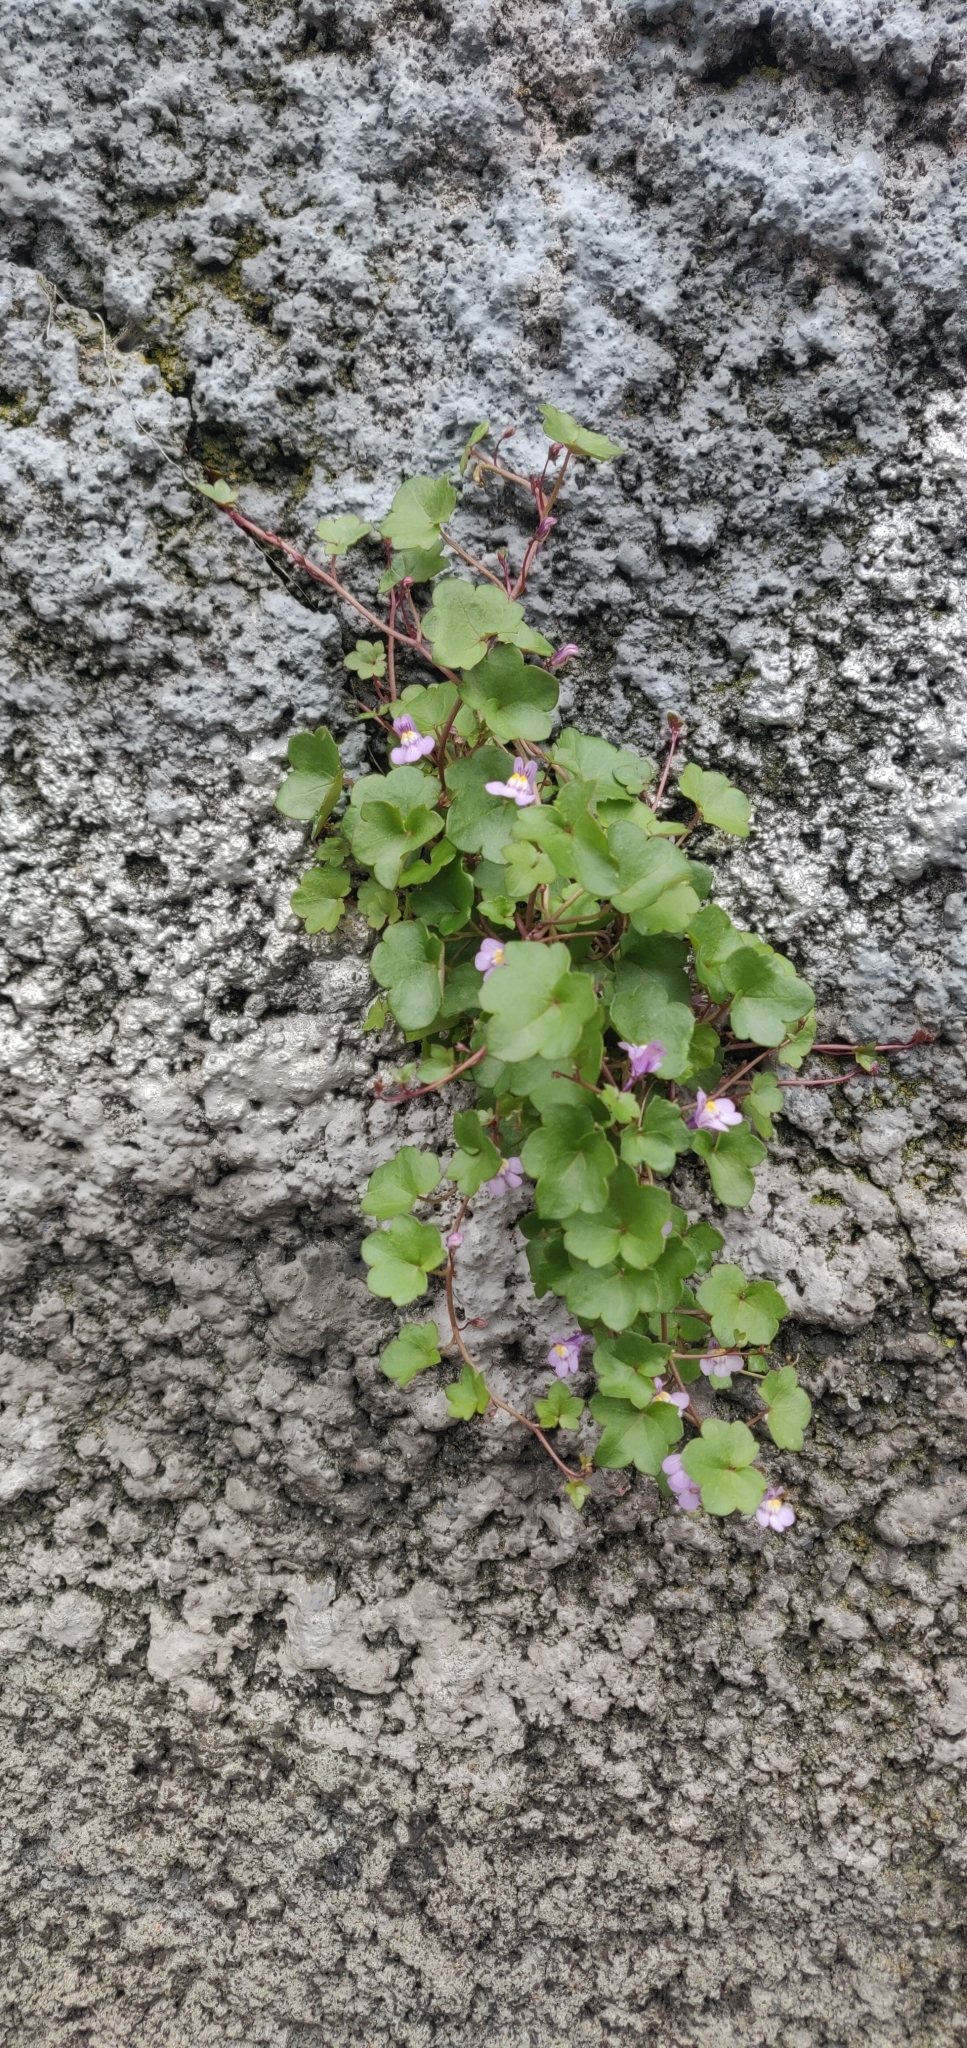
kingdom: Plantae
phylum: Tracheophyta
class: Magnoliopsida
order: Lamiales
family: Plantaginaceae
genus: Cymbalaria
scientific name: Cymbalaria muralis
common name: Ivy-leaved toadflax
